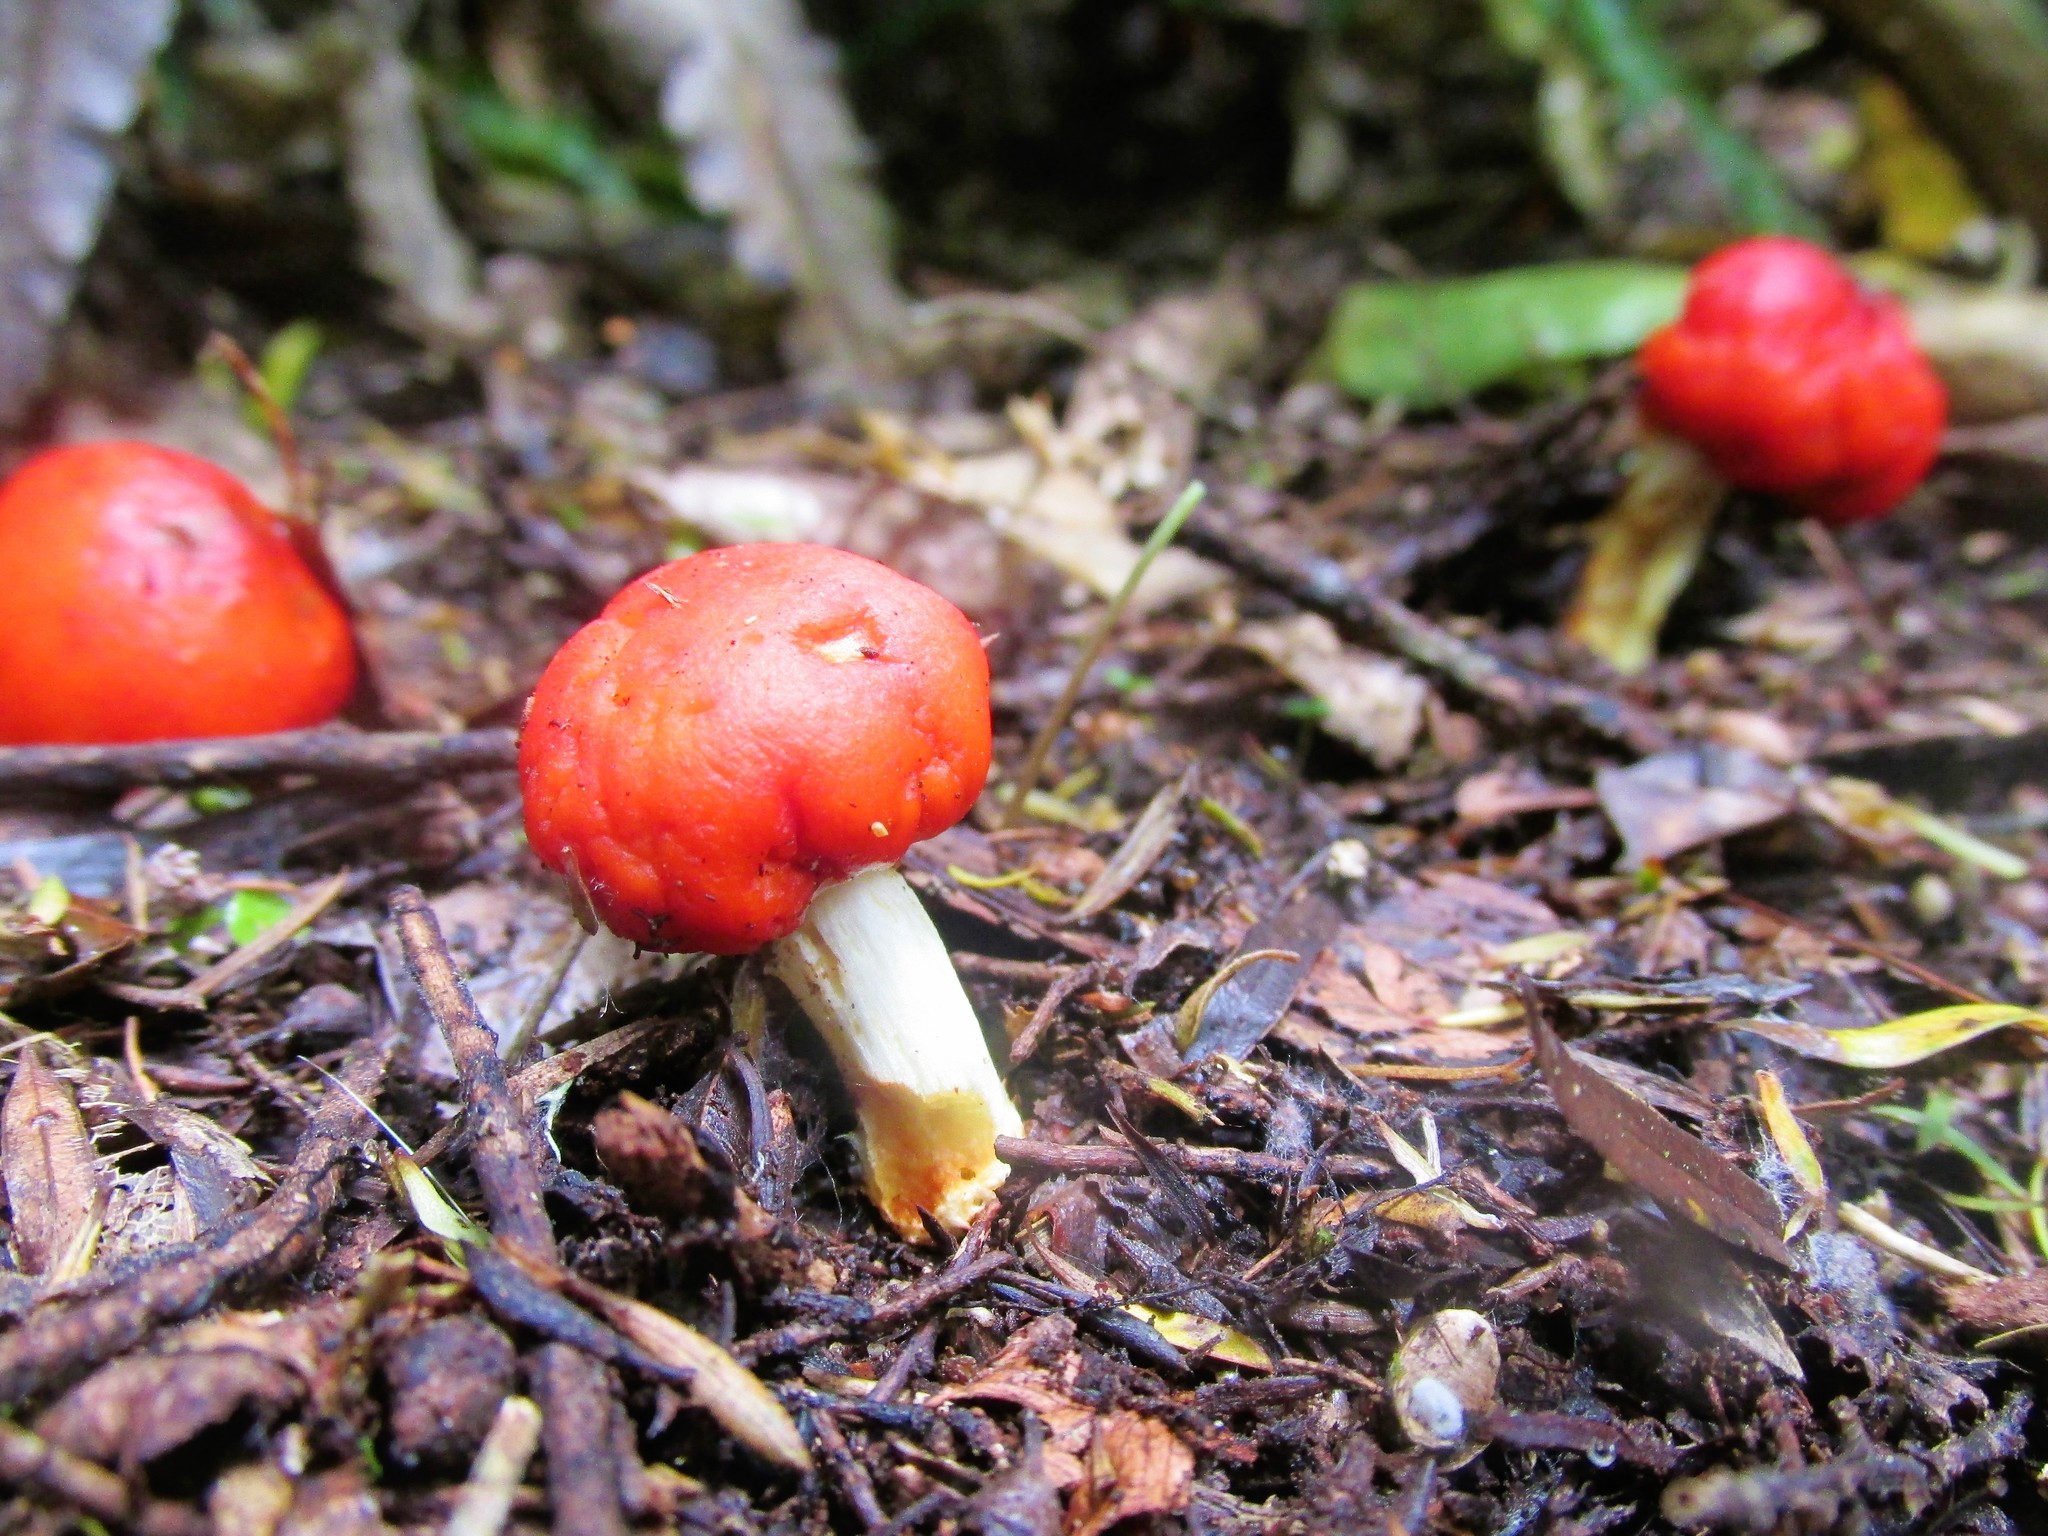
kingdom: Fungi
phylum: Basidiomycota
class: Agaricomycetes
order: Agaricales
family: Strophariaceae
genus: Leratiomyces
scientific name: Leratiomyces erythrocephalus
